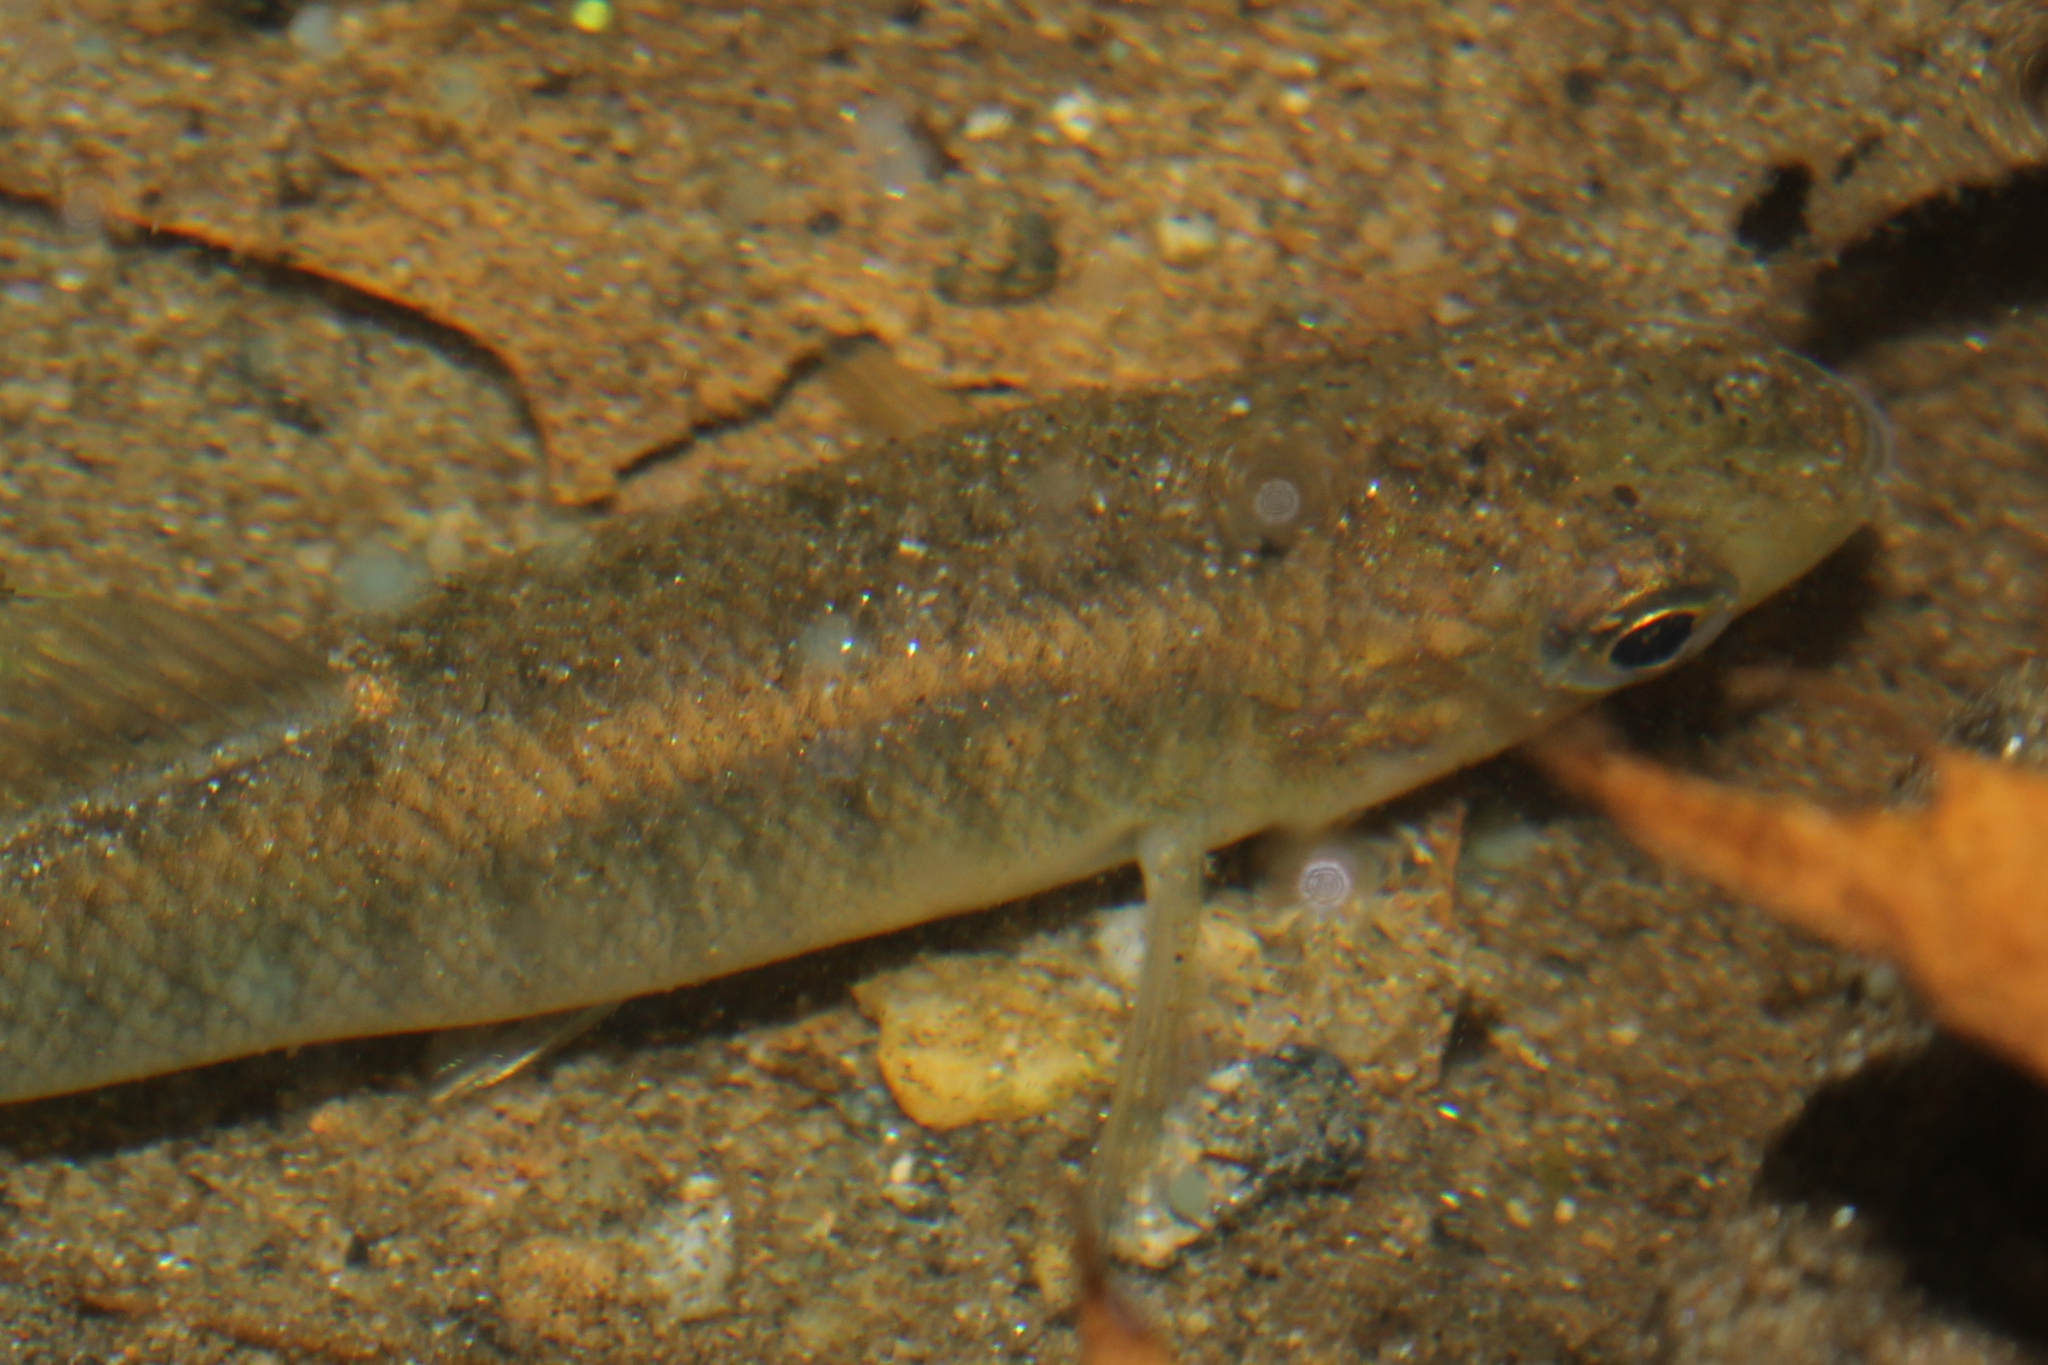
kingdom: Animalia
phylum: Chordata
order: Cyprinodontiformes
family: Fundulidae
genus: Fundulus
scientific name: Fundulus diaphanus
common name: Banded killifish
